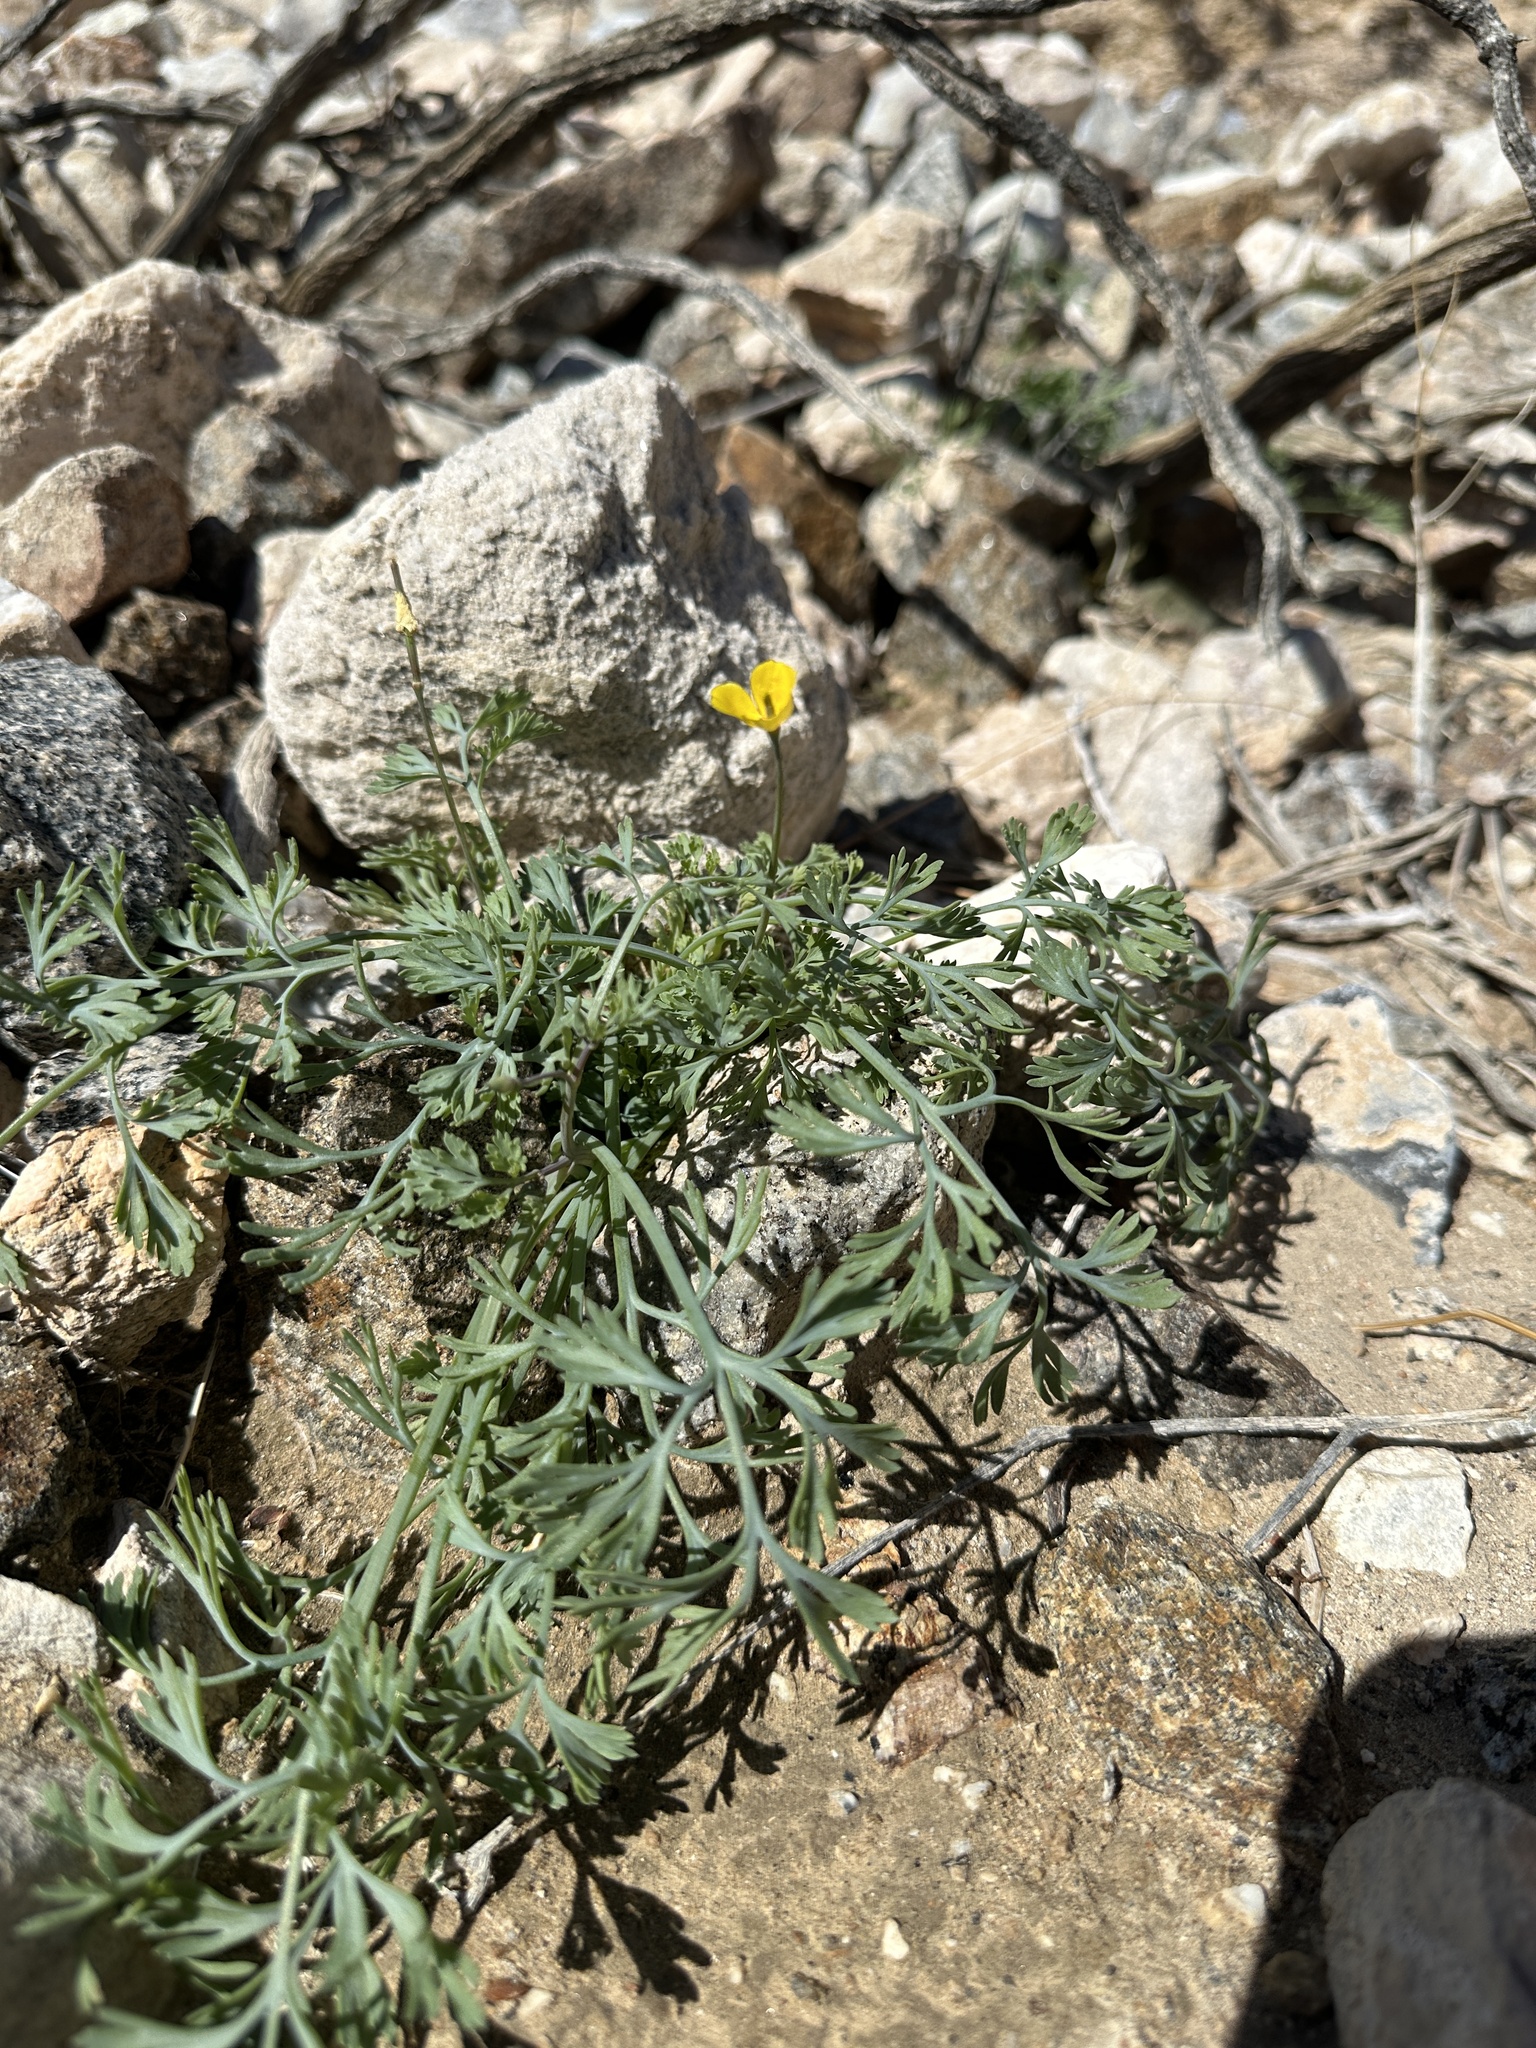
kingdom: Plantae
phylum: Tracheophyta
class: Magnoliopsida
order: Ranunculales
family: Papaveraceae
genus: Eschscholzia
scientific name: Eschscholzia minutiflora
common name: Small-flower california-poppy
